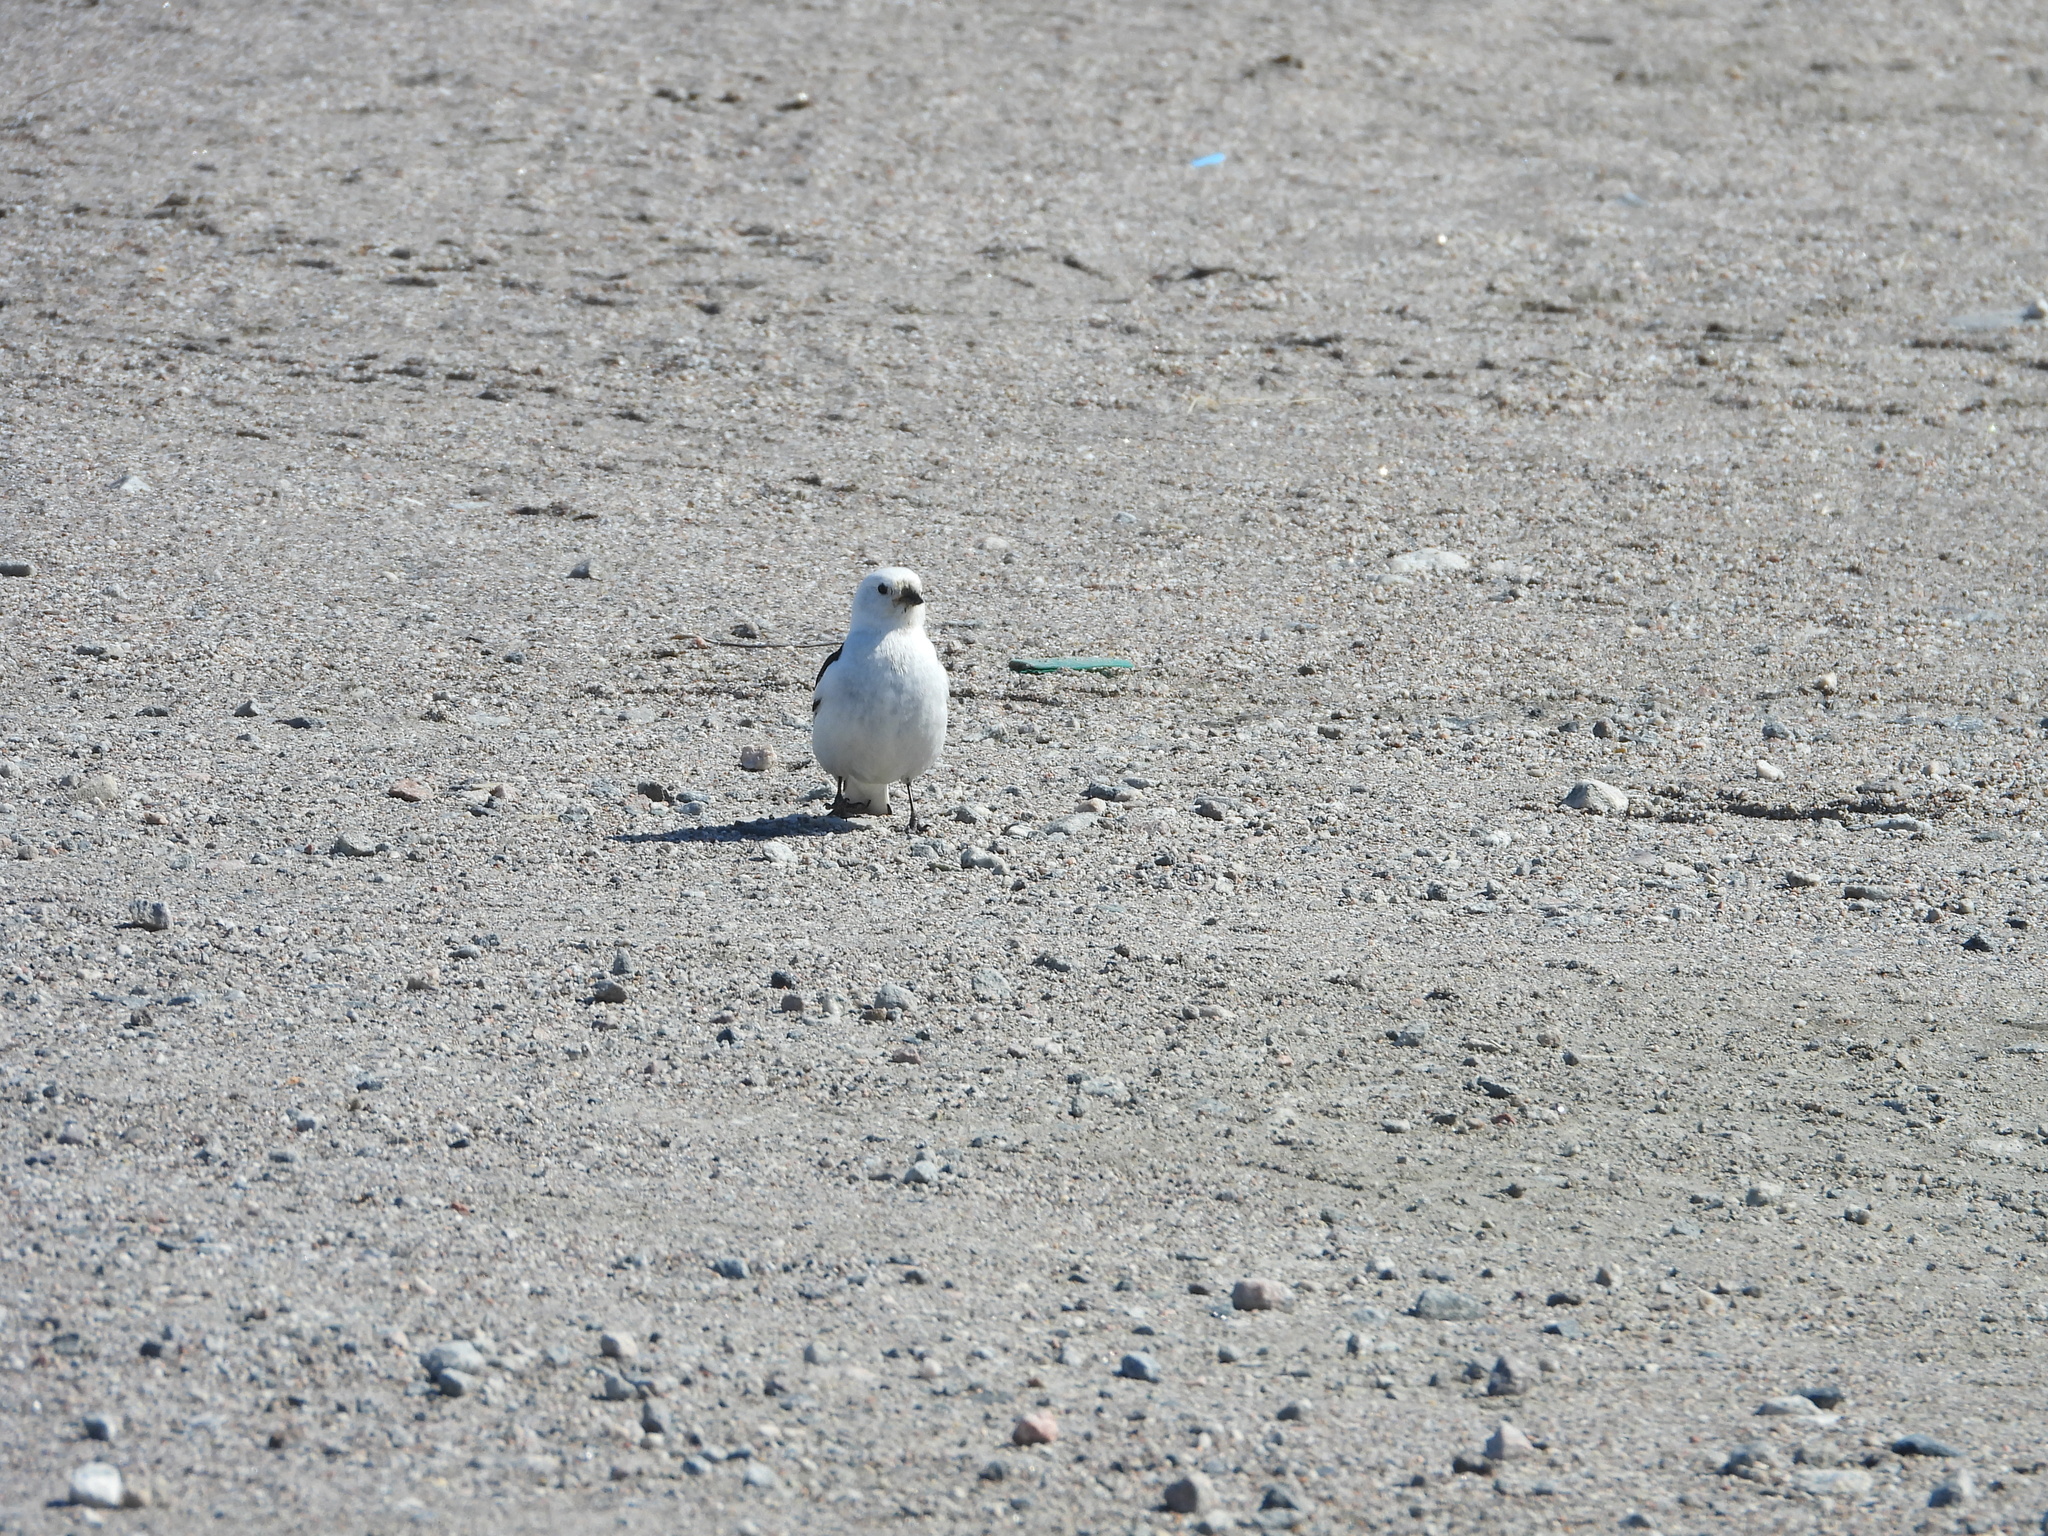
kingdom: Animalia
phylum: Chordata
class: Aves
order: Passeriformes
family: Calcariidae
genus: Plectrophenax
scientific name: Plectrophenax nivalis
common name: Snow bunting
